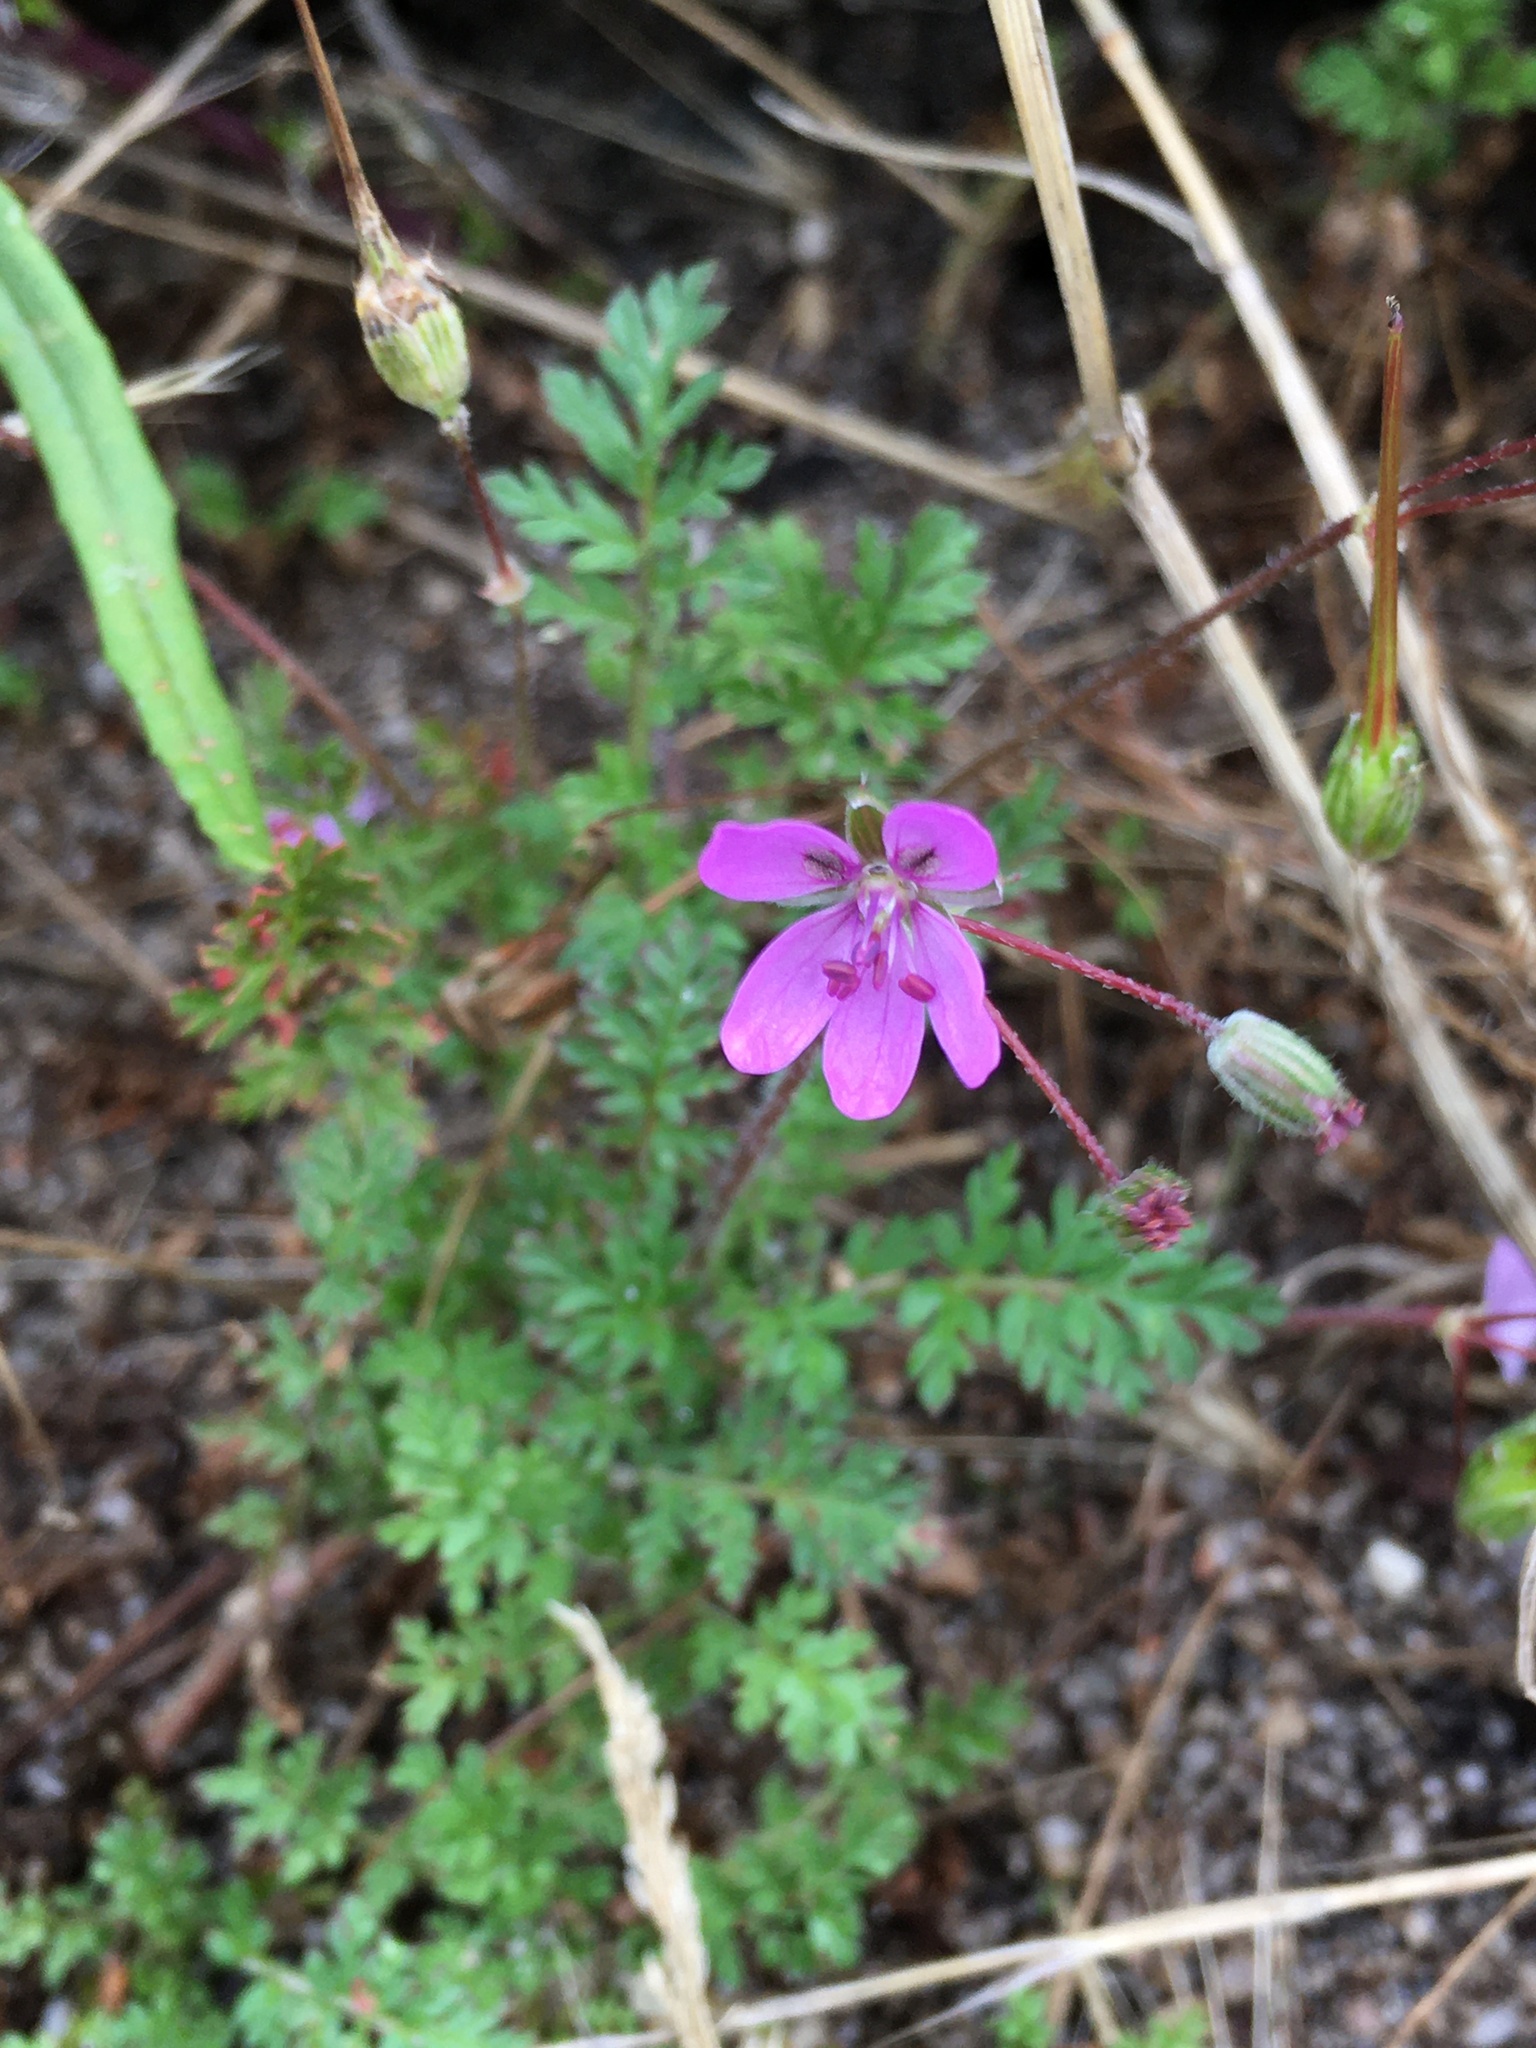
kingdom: Plantae
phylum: Tracheophyta
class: Magnoliopsida
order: Geraniales
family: Geraniaceae
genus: Erodium
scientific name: Erodium cicutarium
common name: Common stork's-bill
